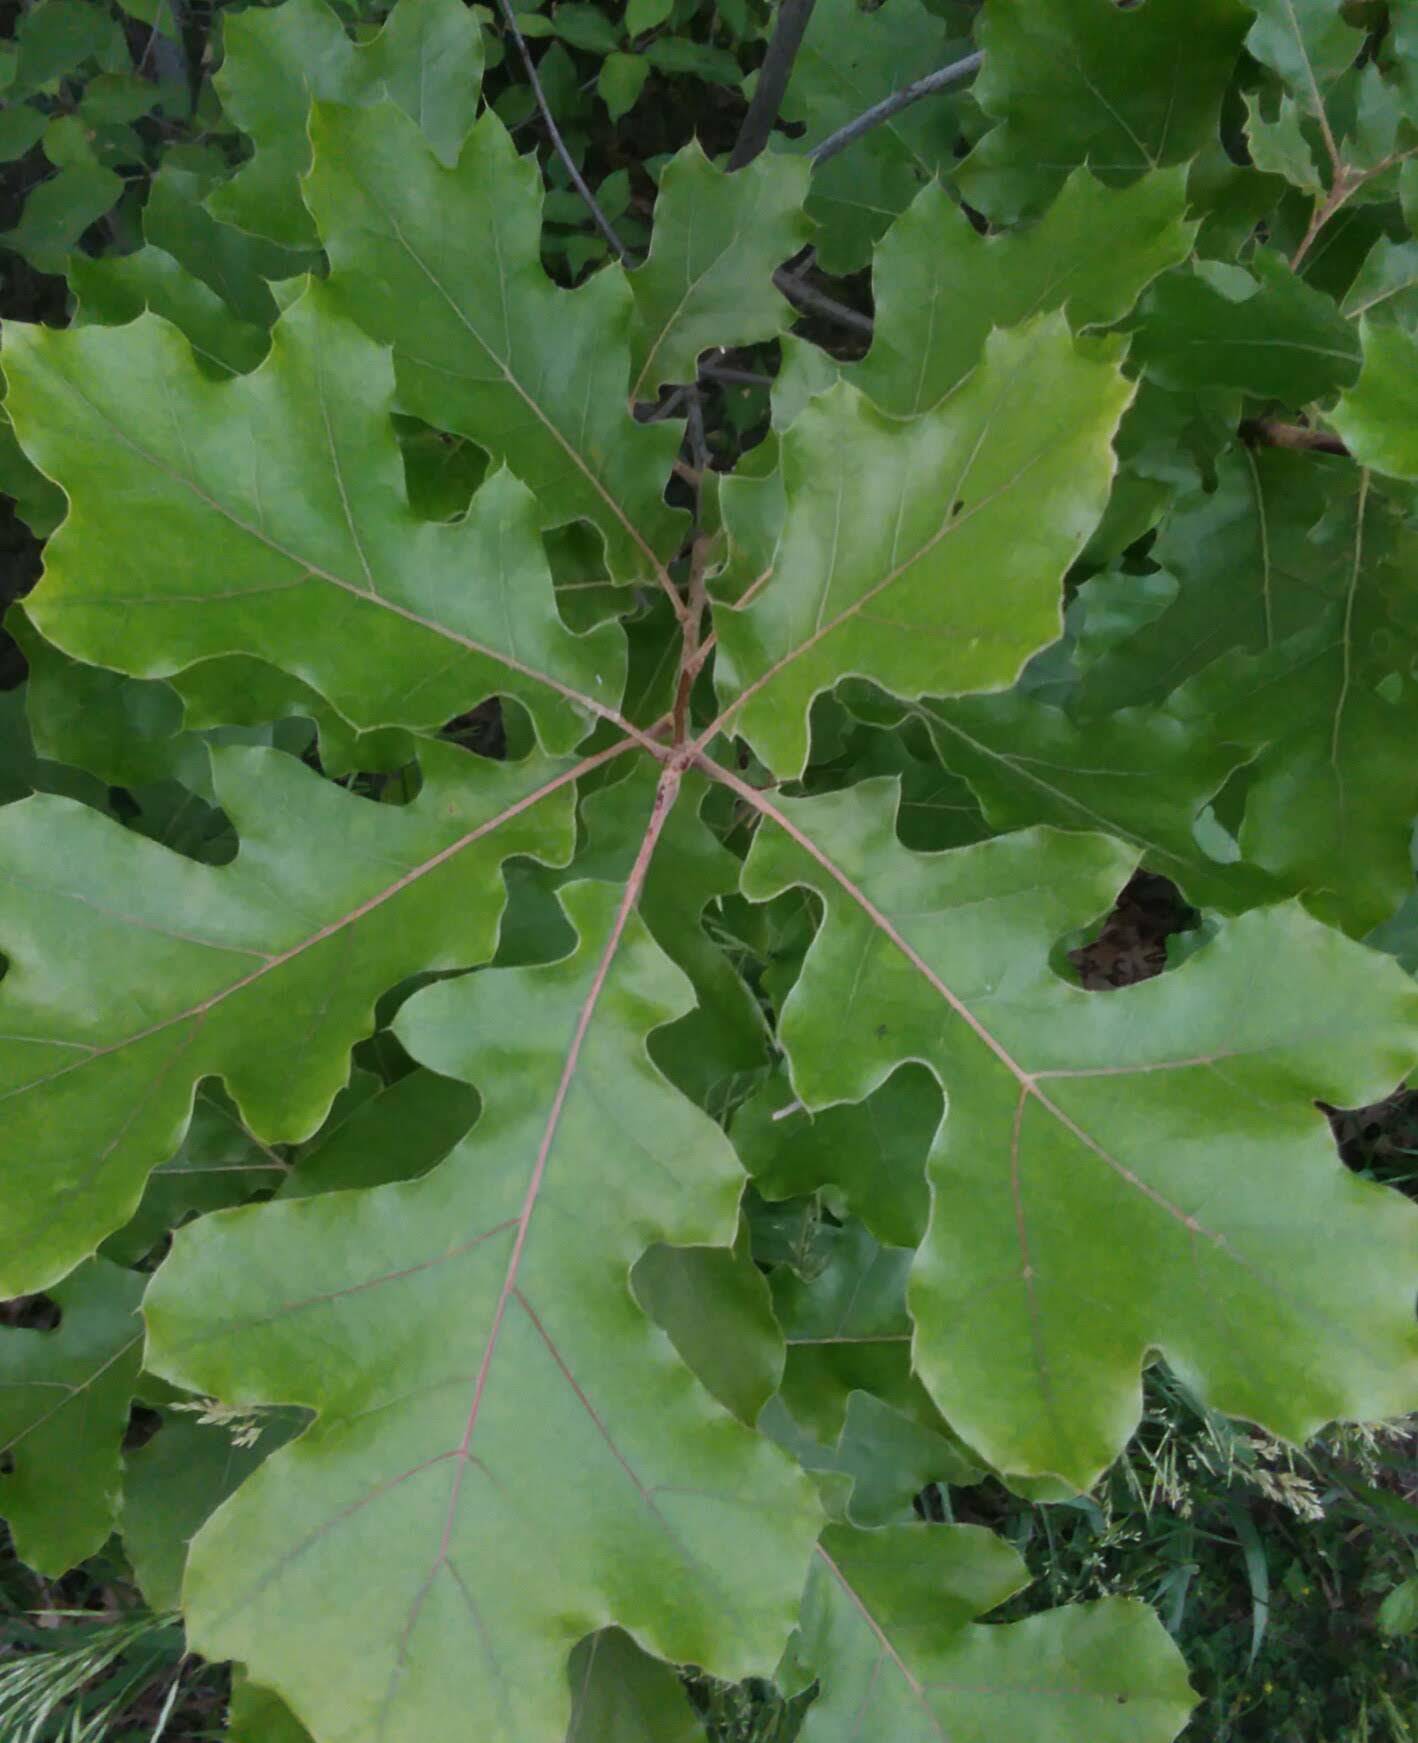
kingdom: Plantae
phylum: Tracheophyta
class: Magnoliopsida
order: Fagales
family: Fagaceae
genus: Quercus
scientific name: Quercus velutina
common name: Black oak
